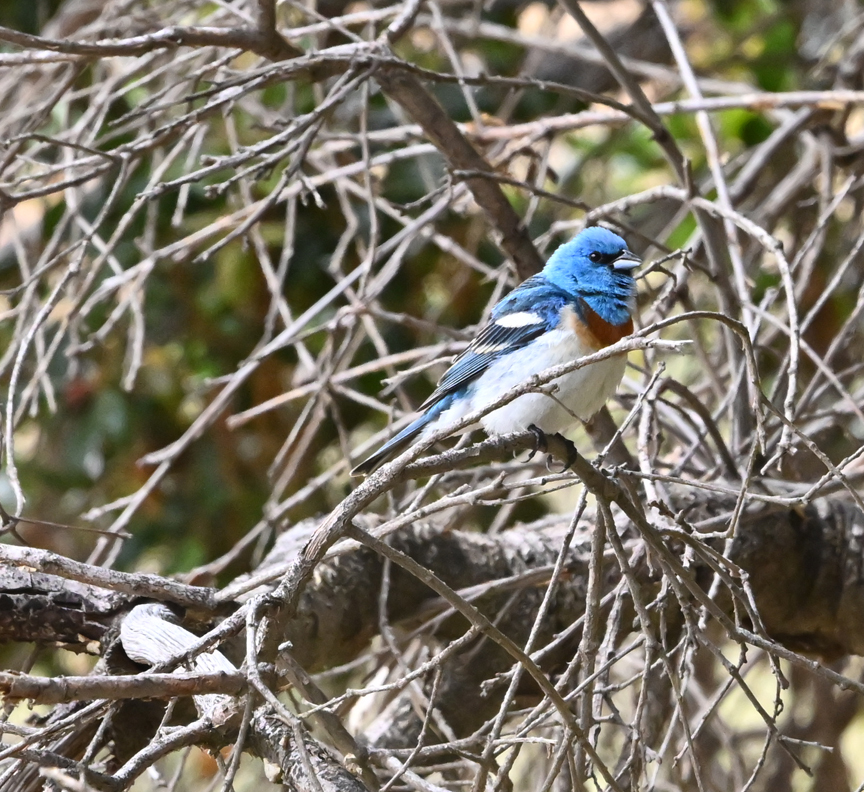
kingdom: Animalia
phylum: Chordata
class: Aves
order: Passeriformes
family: Cardinalidae
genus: Passerina
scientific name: Passerina amoena
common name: Lazuli bunting
